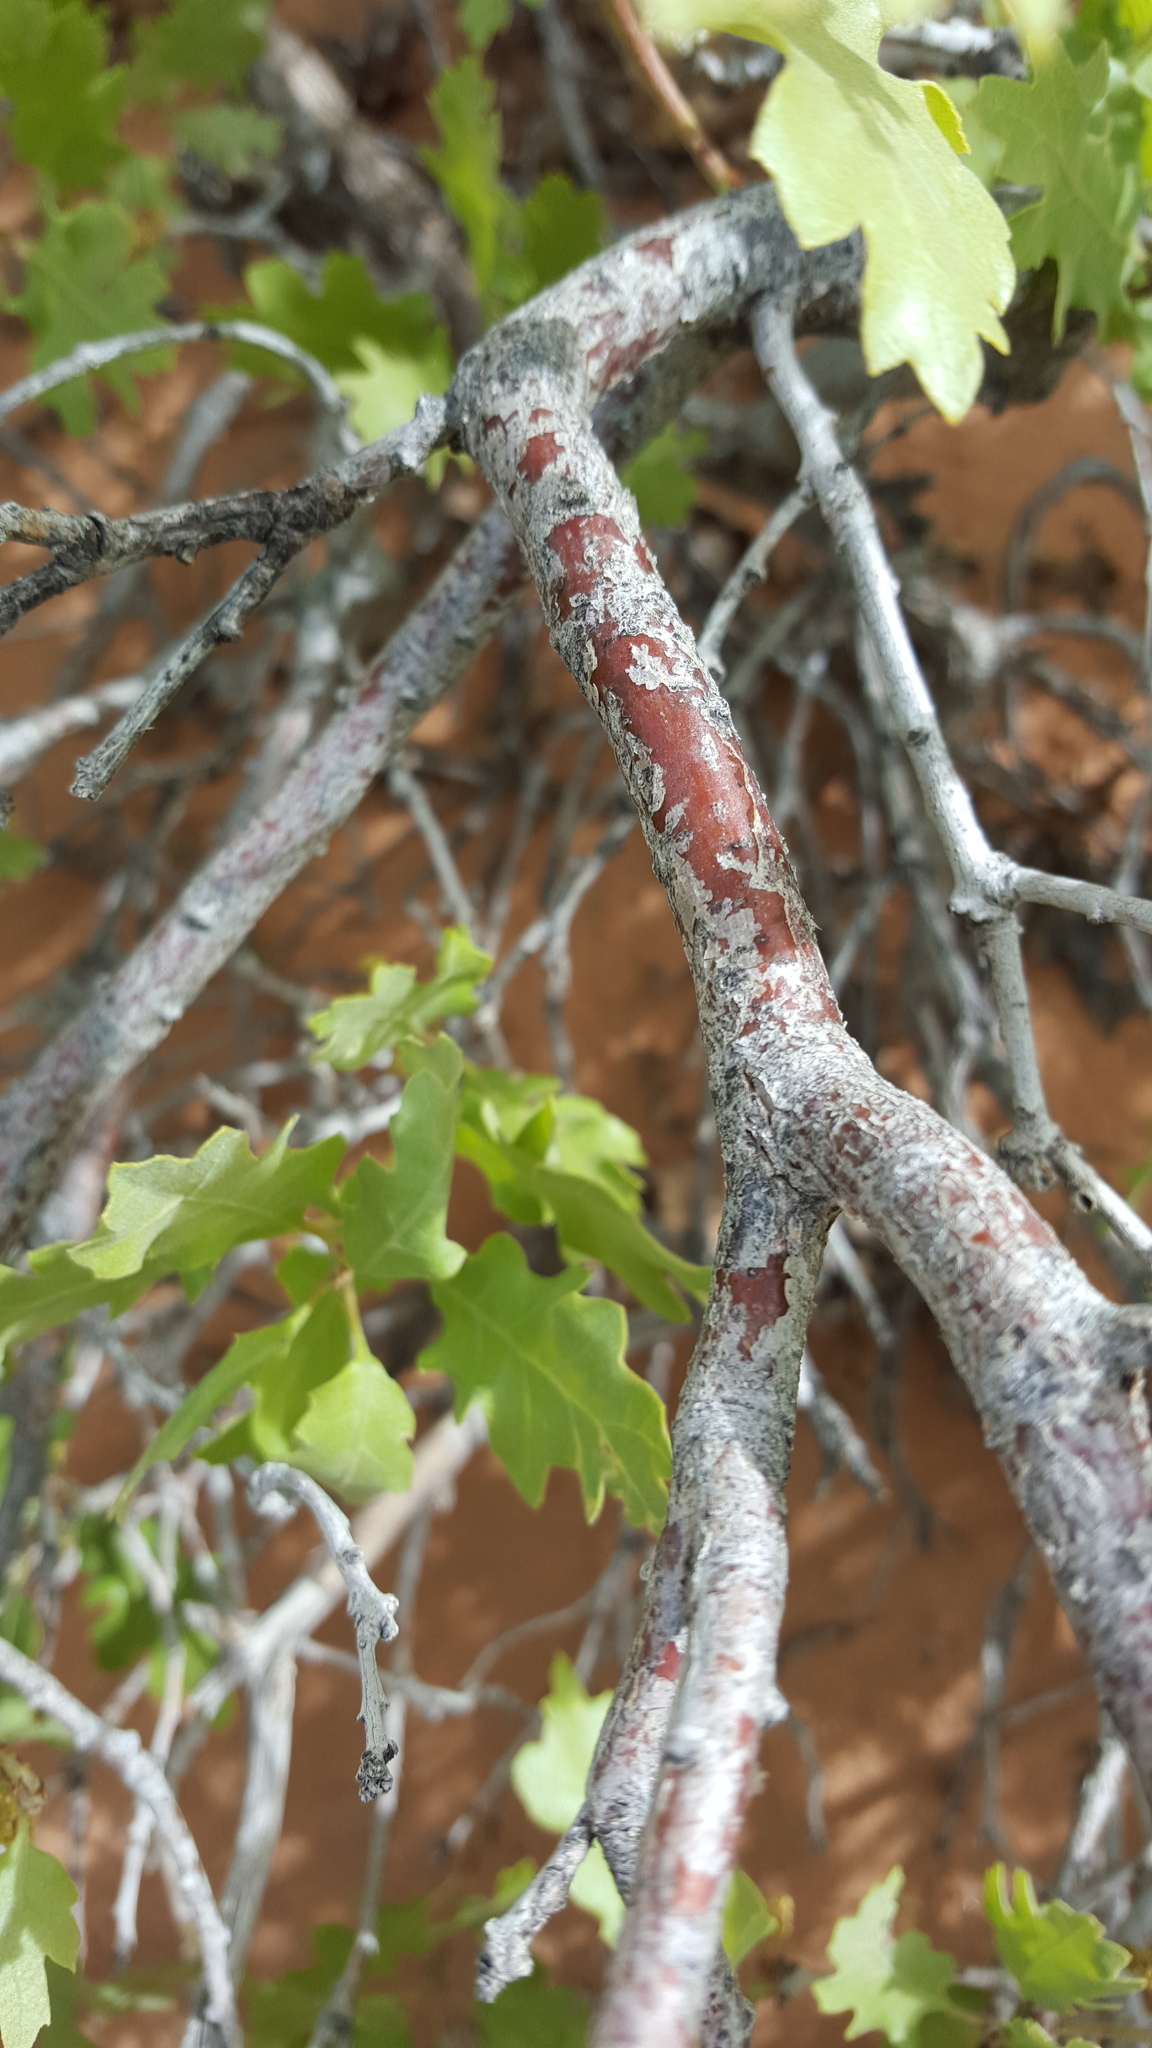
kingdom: Plantae
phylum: Tracheophyta
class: Magnoliopsida
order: Fagales
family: Fagaceae
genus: Quercus
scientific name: Quercus gambelii
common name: Gambel oak
